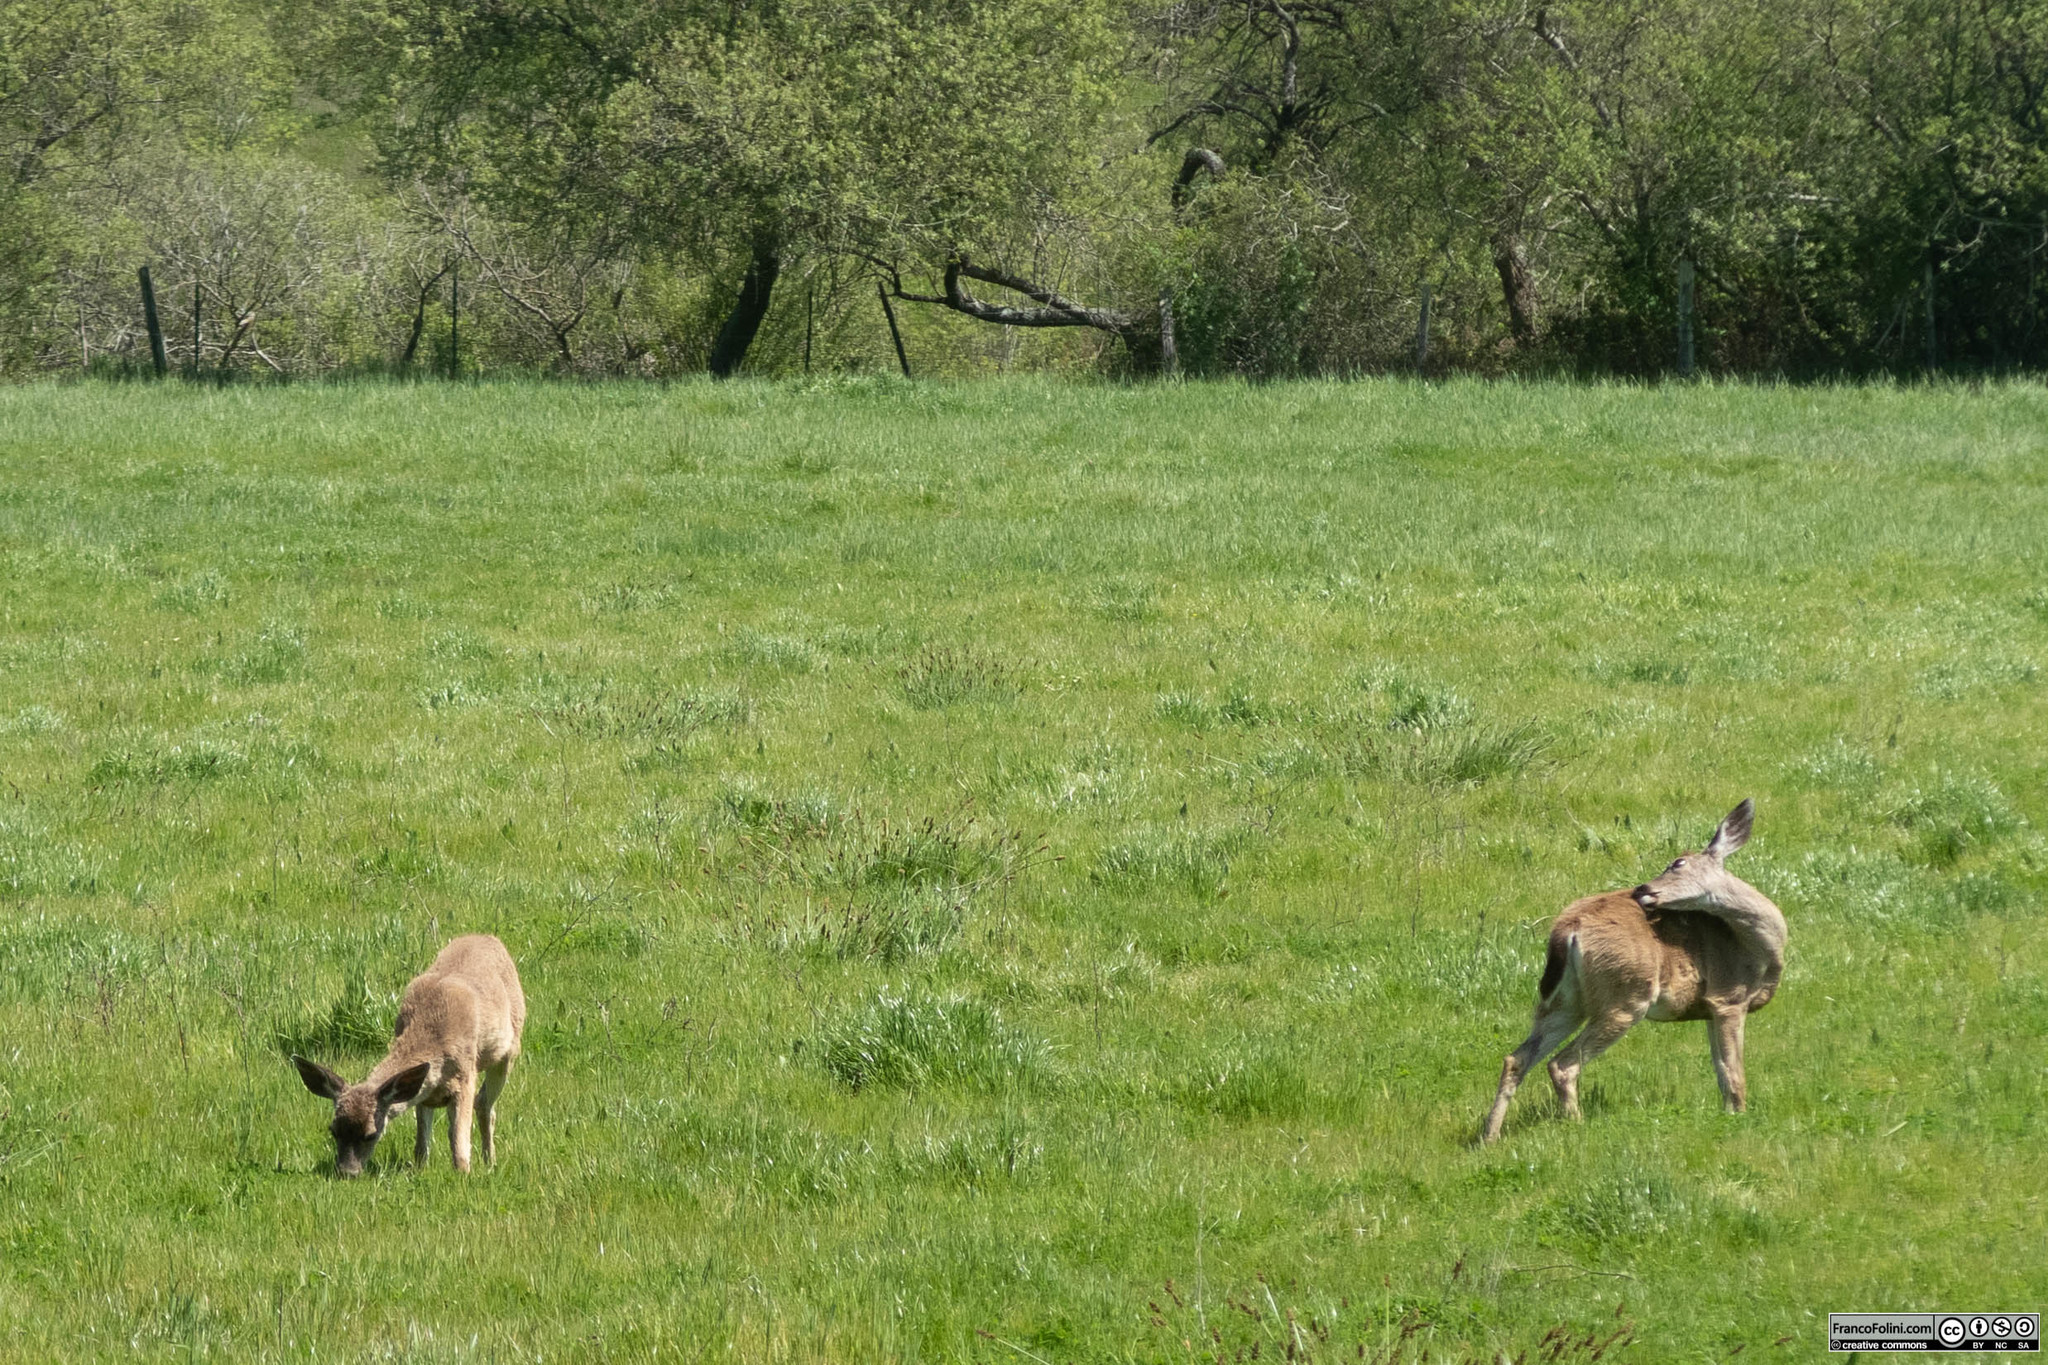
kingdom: Animalia
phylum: Chordata
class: Mammalia
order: Artiodactyla
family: Cervidae
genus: Odocoileus
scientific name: Odocoileus hemionus
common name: Mule deer
